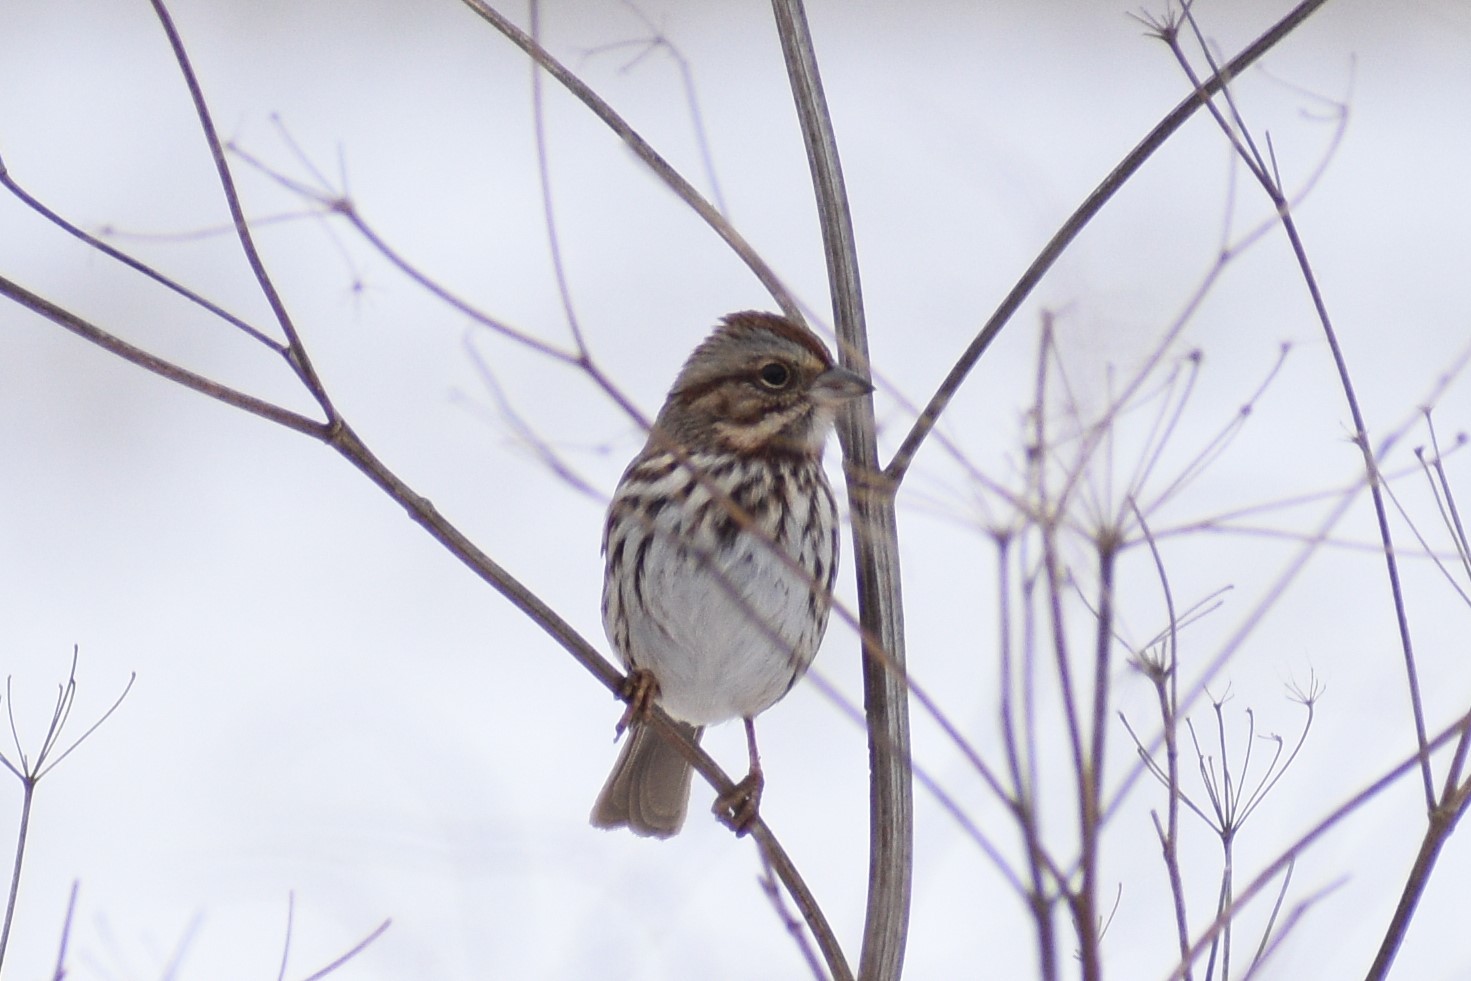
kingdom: Animalia
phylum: Chordata
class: Aves
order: Passeriformes
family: Passerellidae
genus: Melospiza
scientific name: Melospiza melodia
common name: Song sparrow
